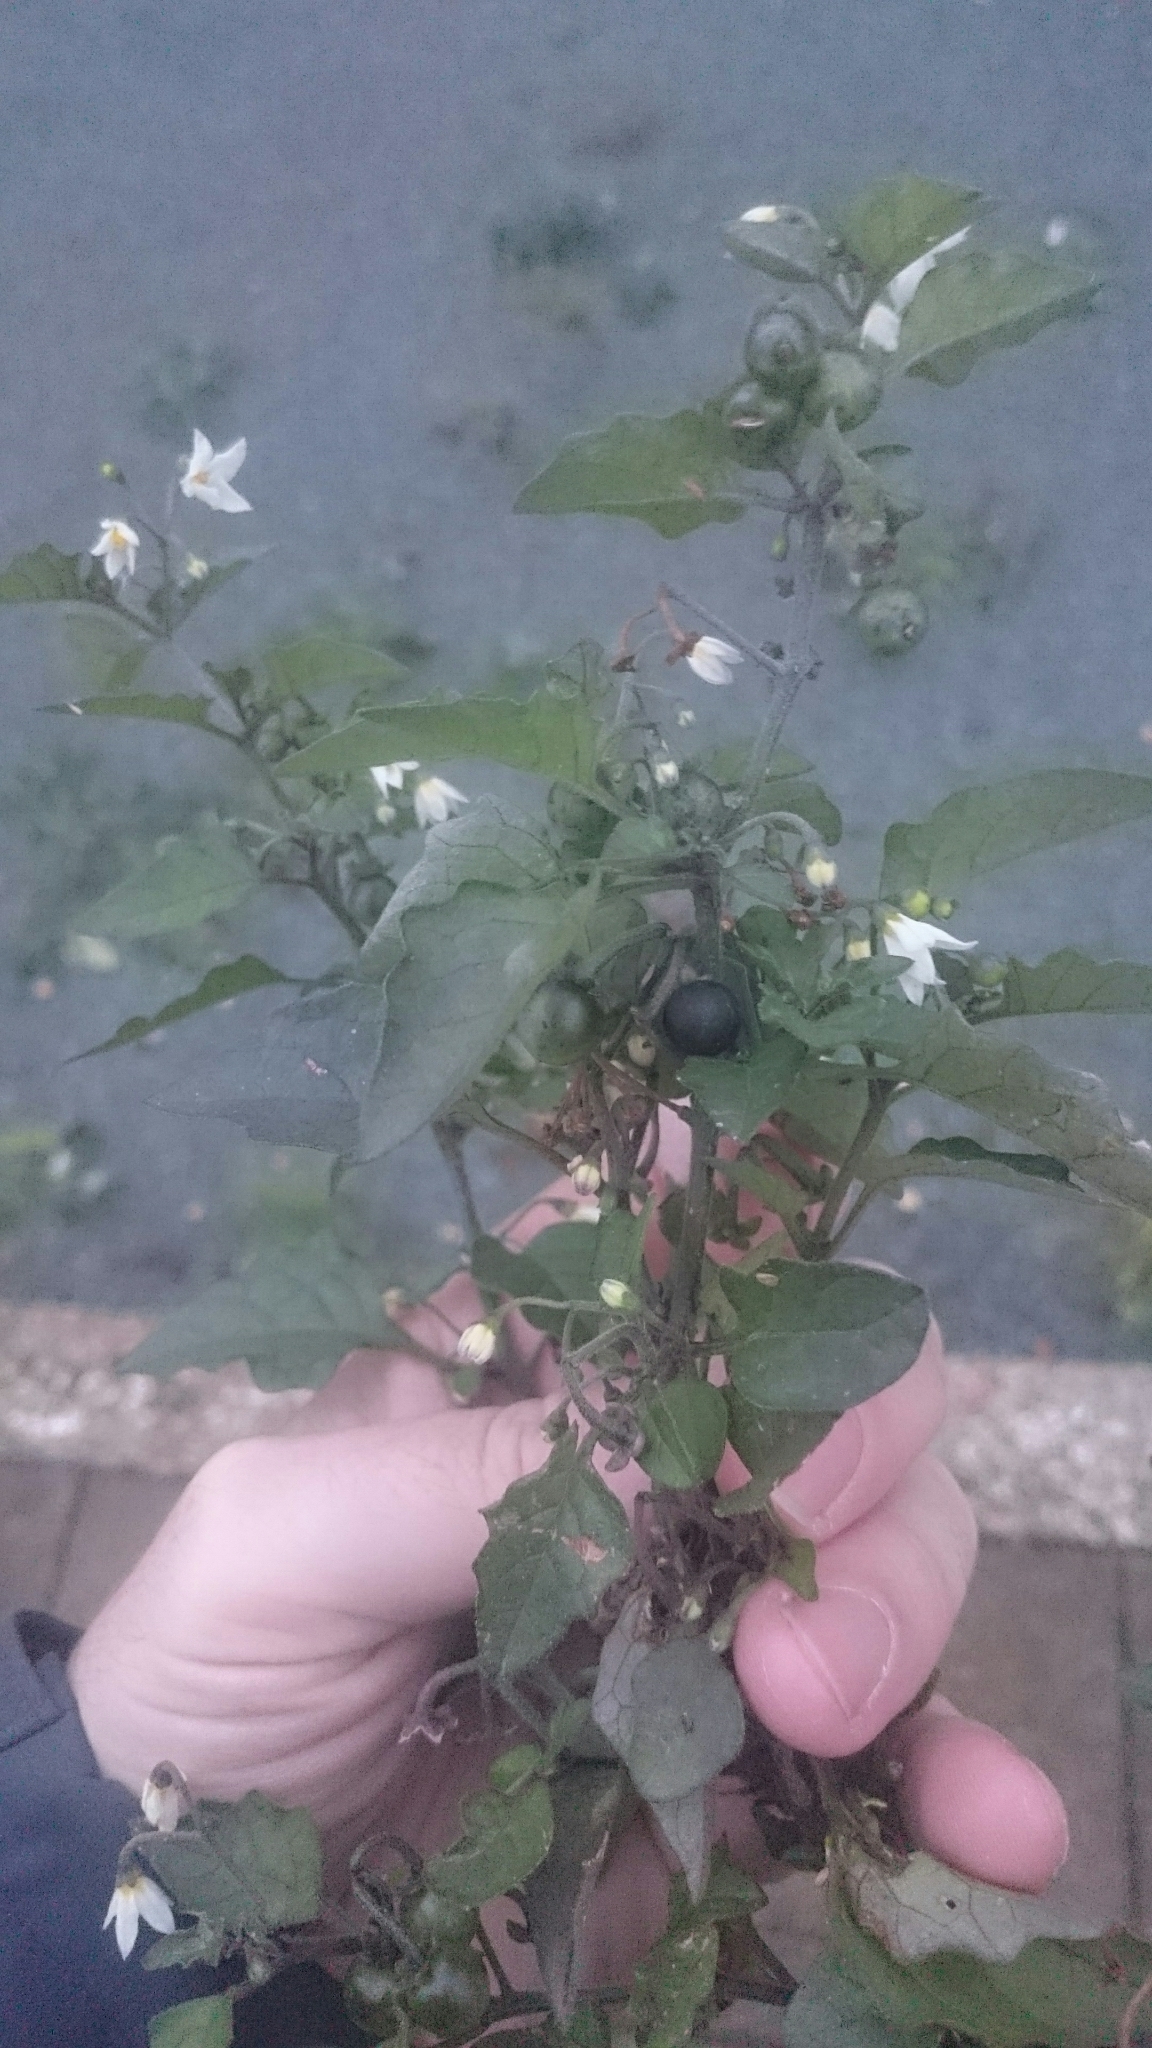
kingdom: Plantae
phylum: Tracheophyta
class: Magnoliopsida
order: Solanales
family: Solanaceae
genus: Solanum
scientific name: Solanum nigrum
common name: Black nightshade
